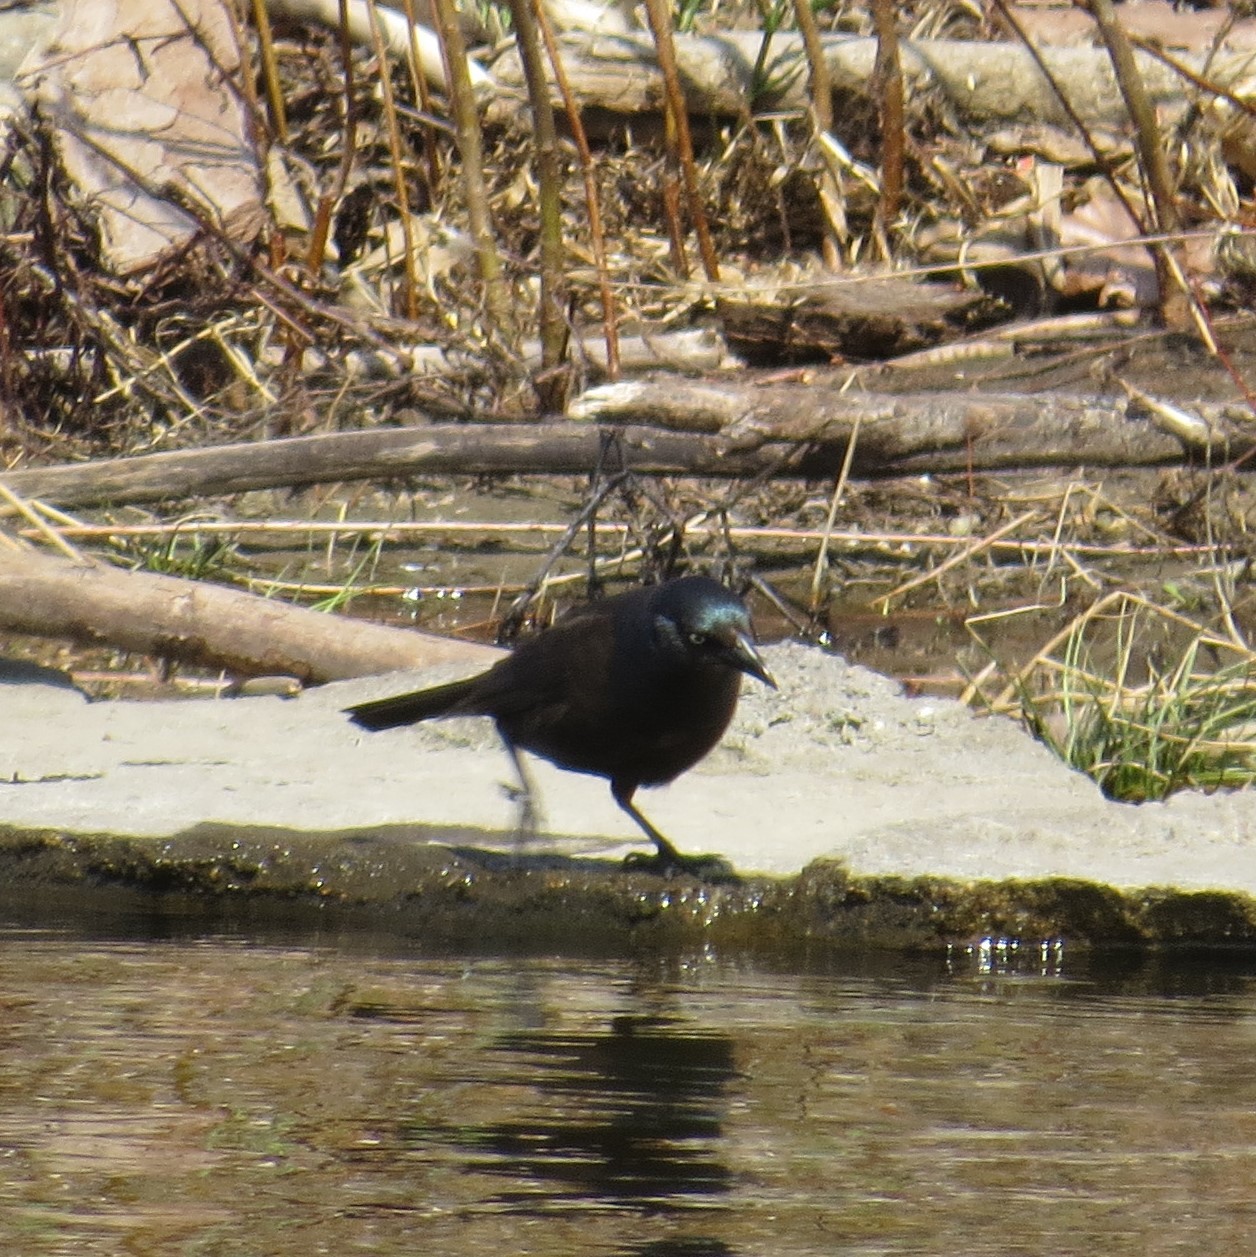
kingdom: Animalia
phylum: Chordata
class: Aves
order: Passeriformes
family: Icteridae
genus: Quiscalus
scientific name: Quiscalus quiscula
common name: Common grackle
